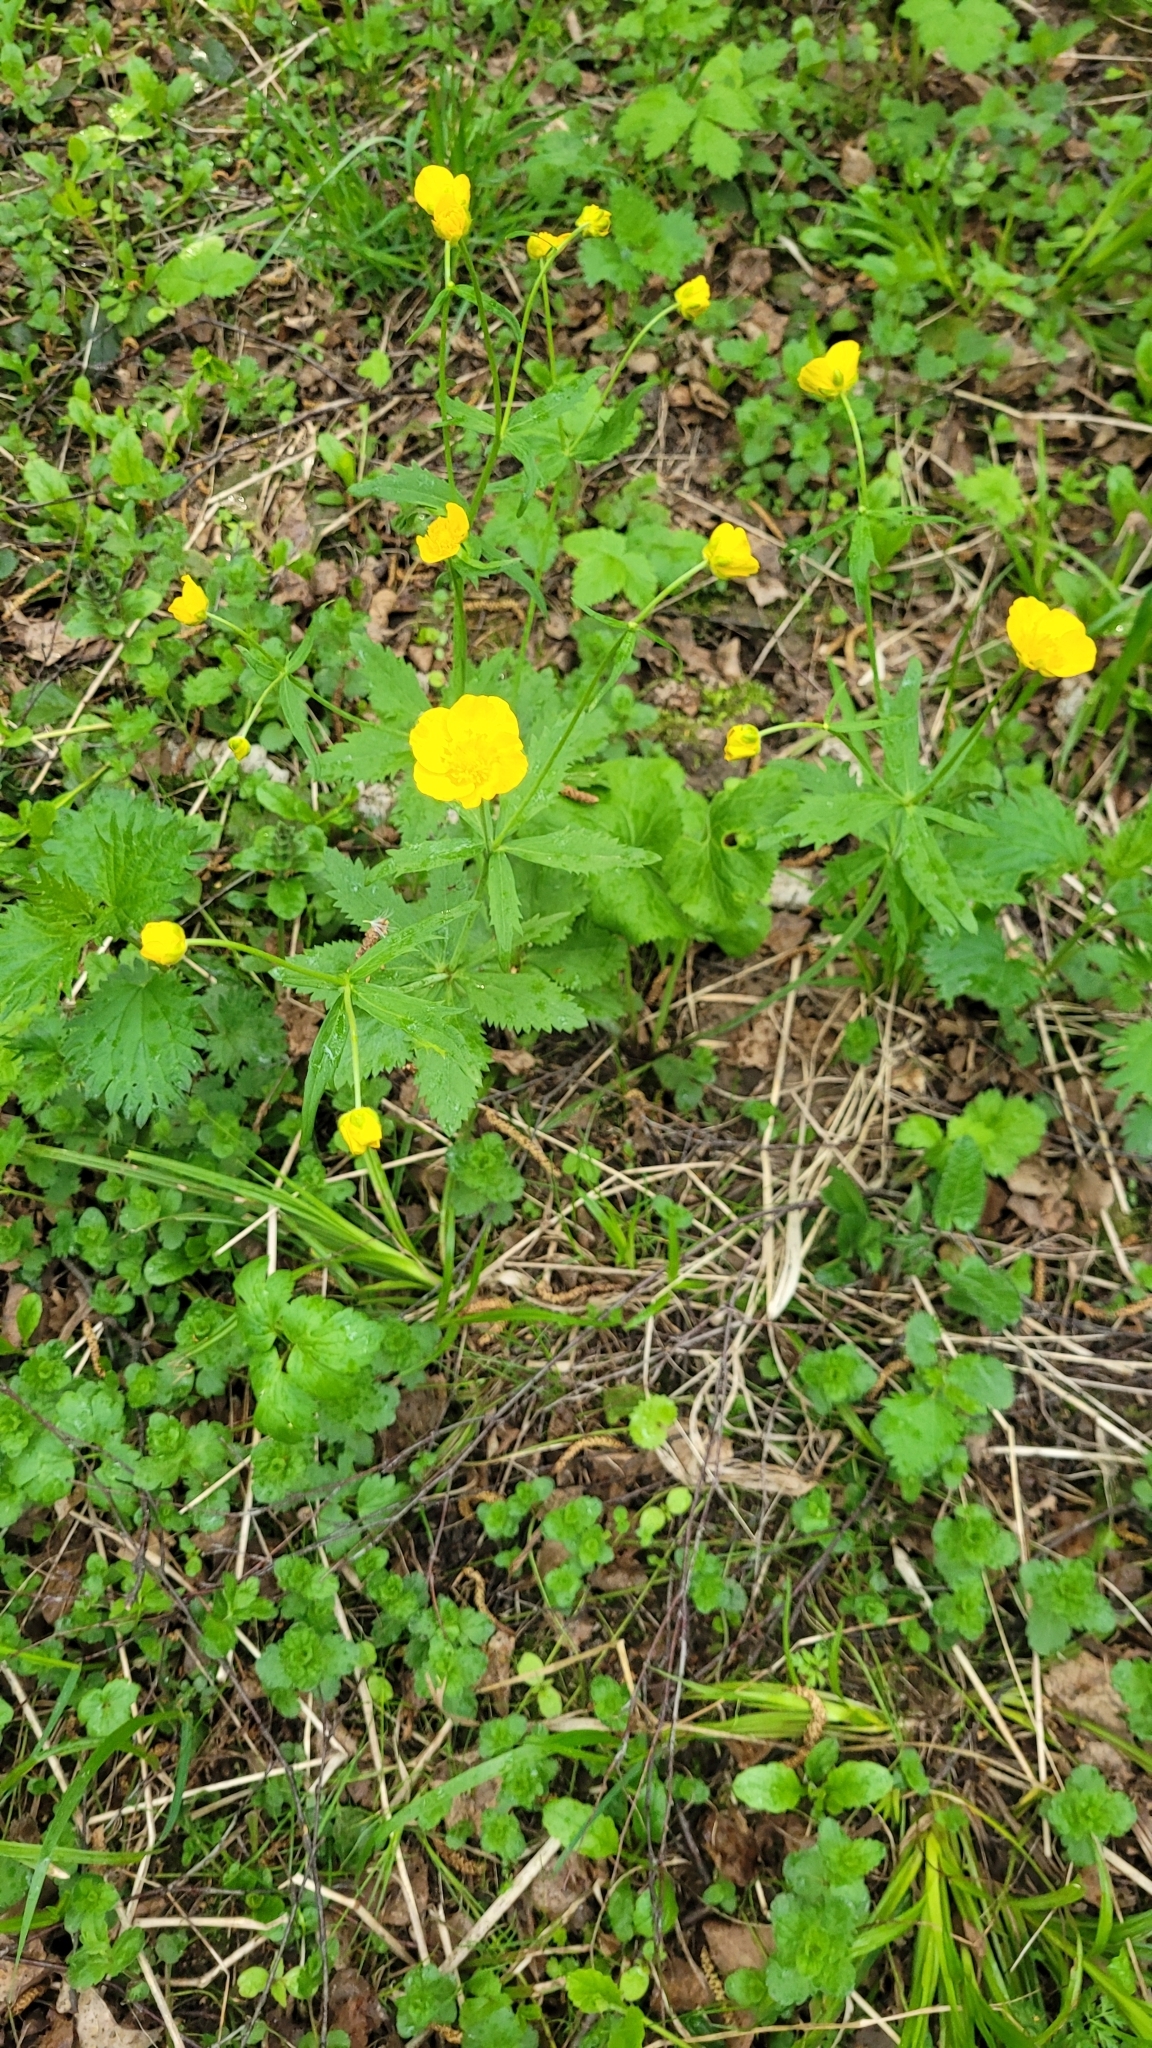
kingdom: Plantae
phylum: Tracheophyta
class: Magnoliopsida
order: Ranunculales
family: Ranunculaceae
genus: Ranunculus
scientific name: Ranunculus cassubicus
